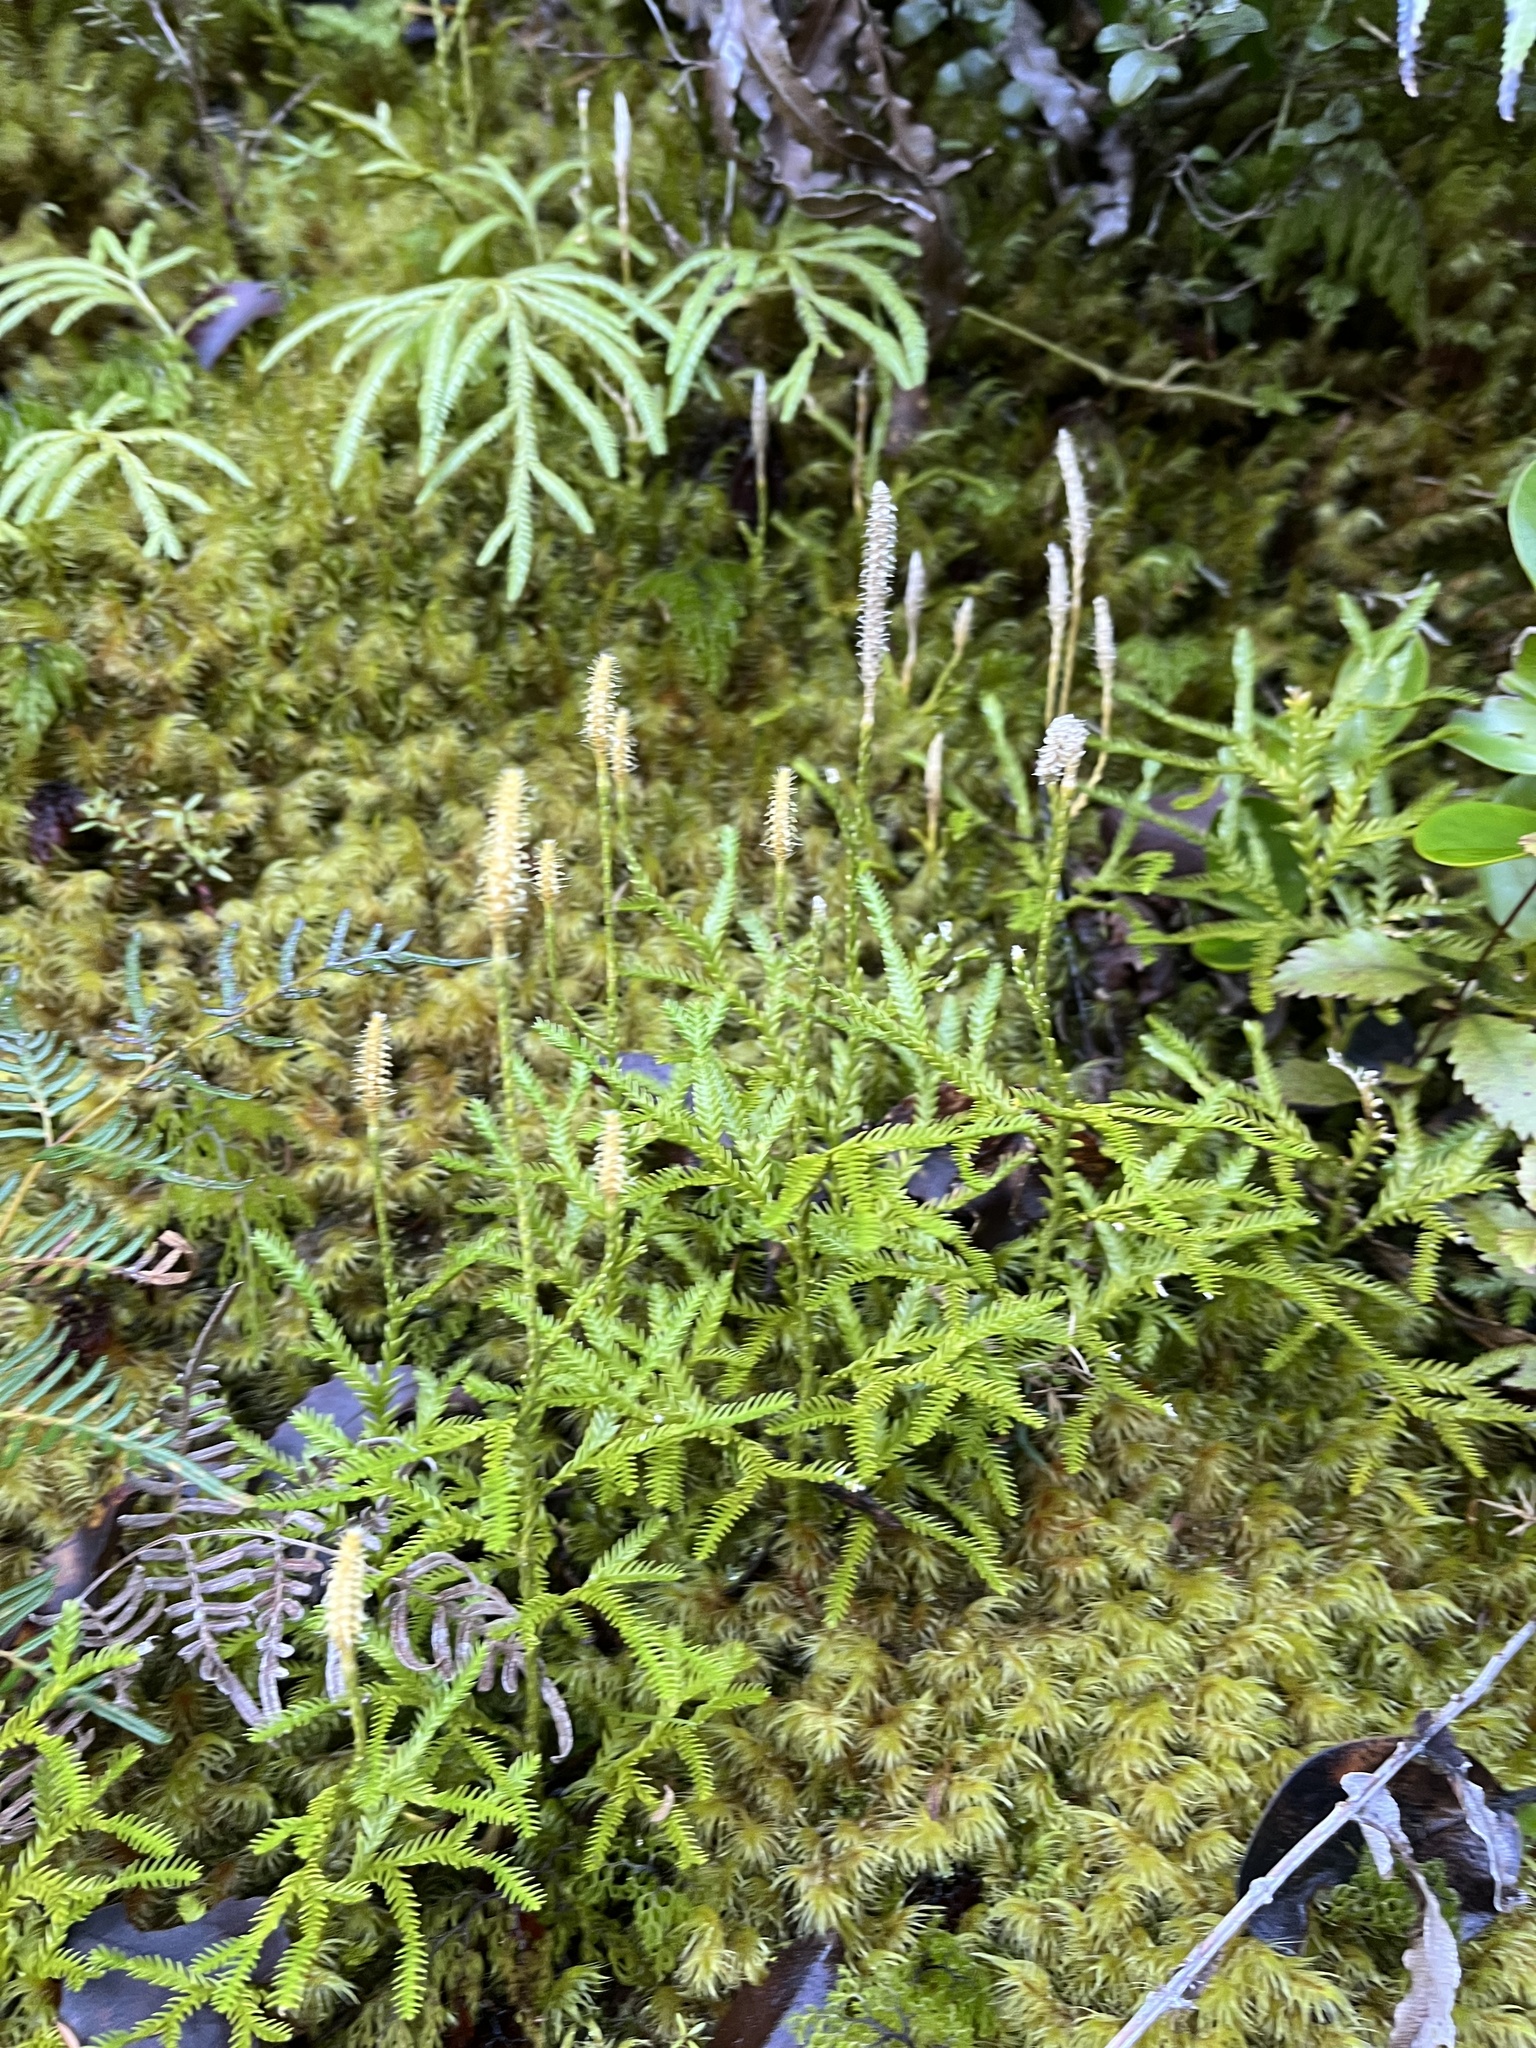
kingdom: Plantae
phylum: Tracheophyta
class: Lycopodiopsida
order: Lycopodiales
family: Lycopodiaceae
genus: Diphasium
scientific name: Diphasium scariosum
